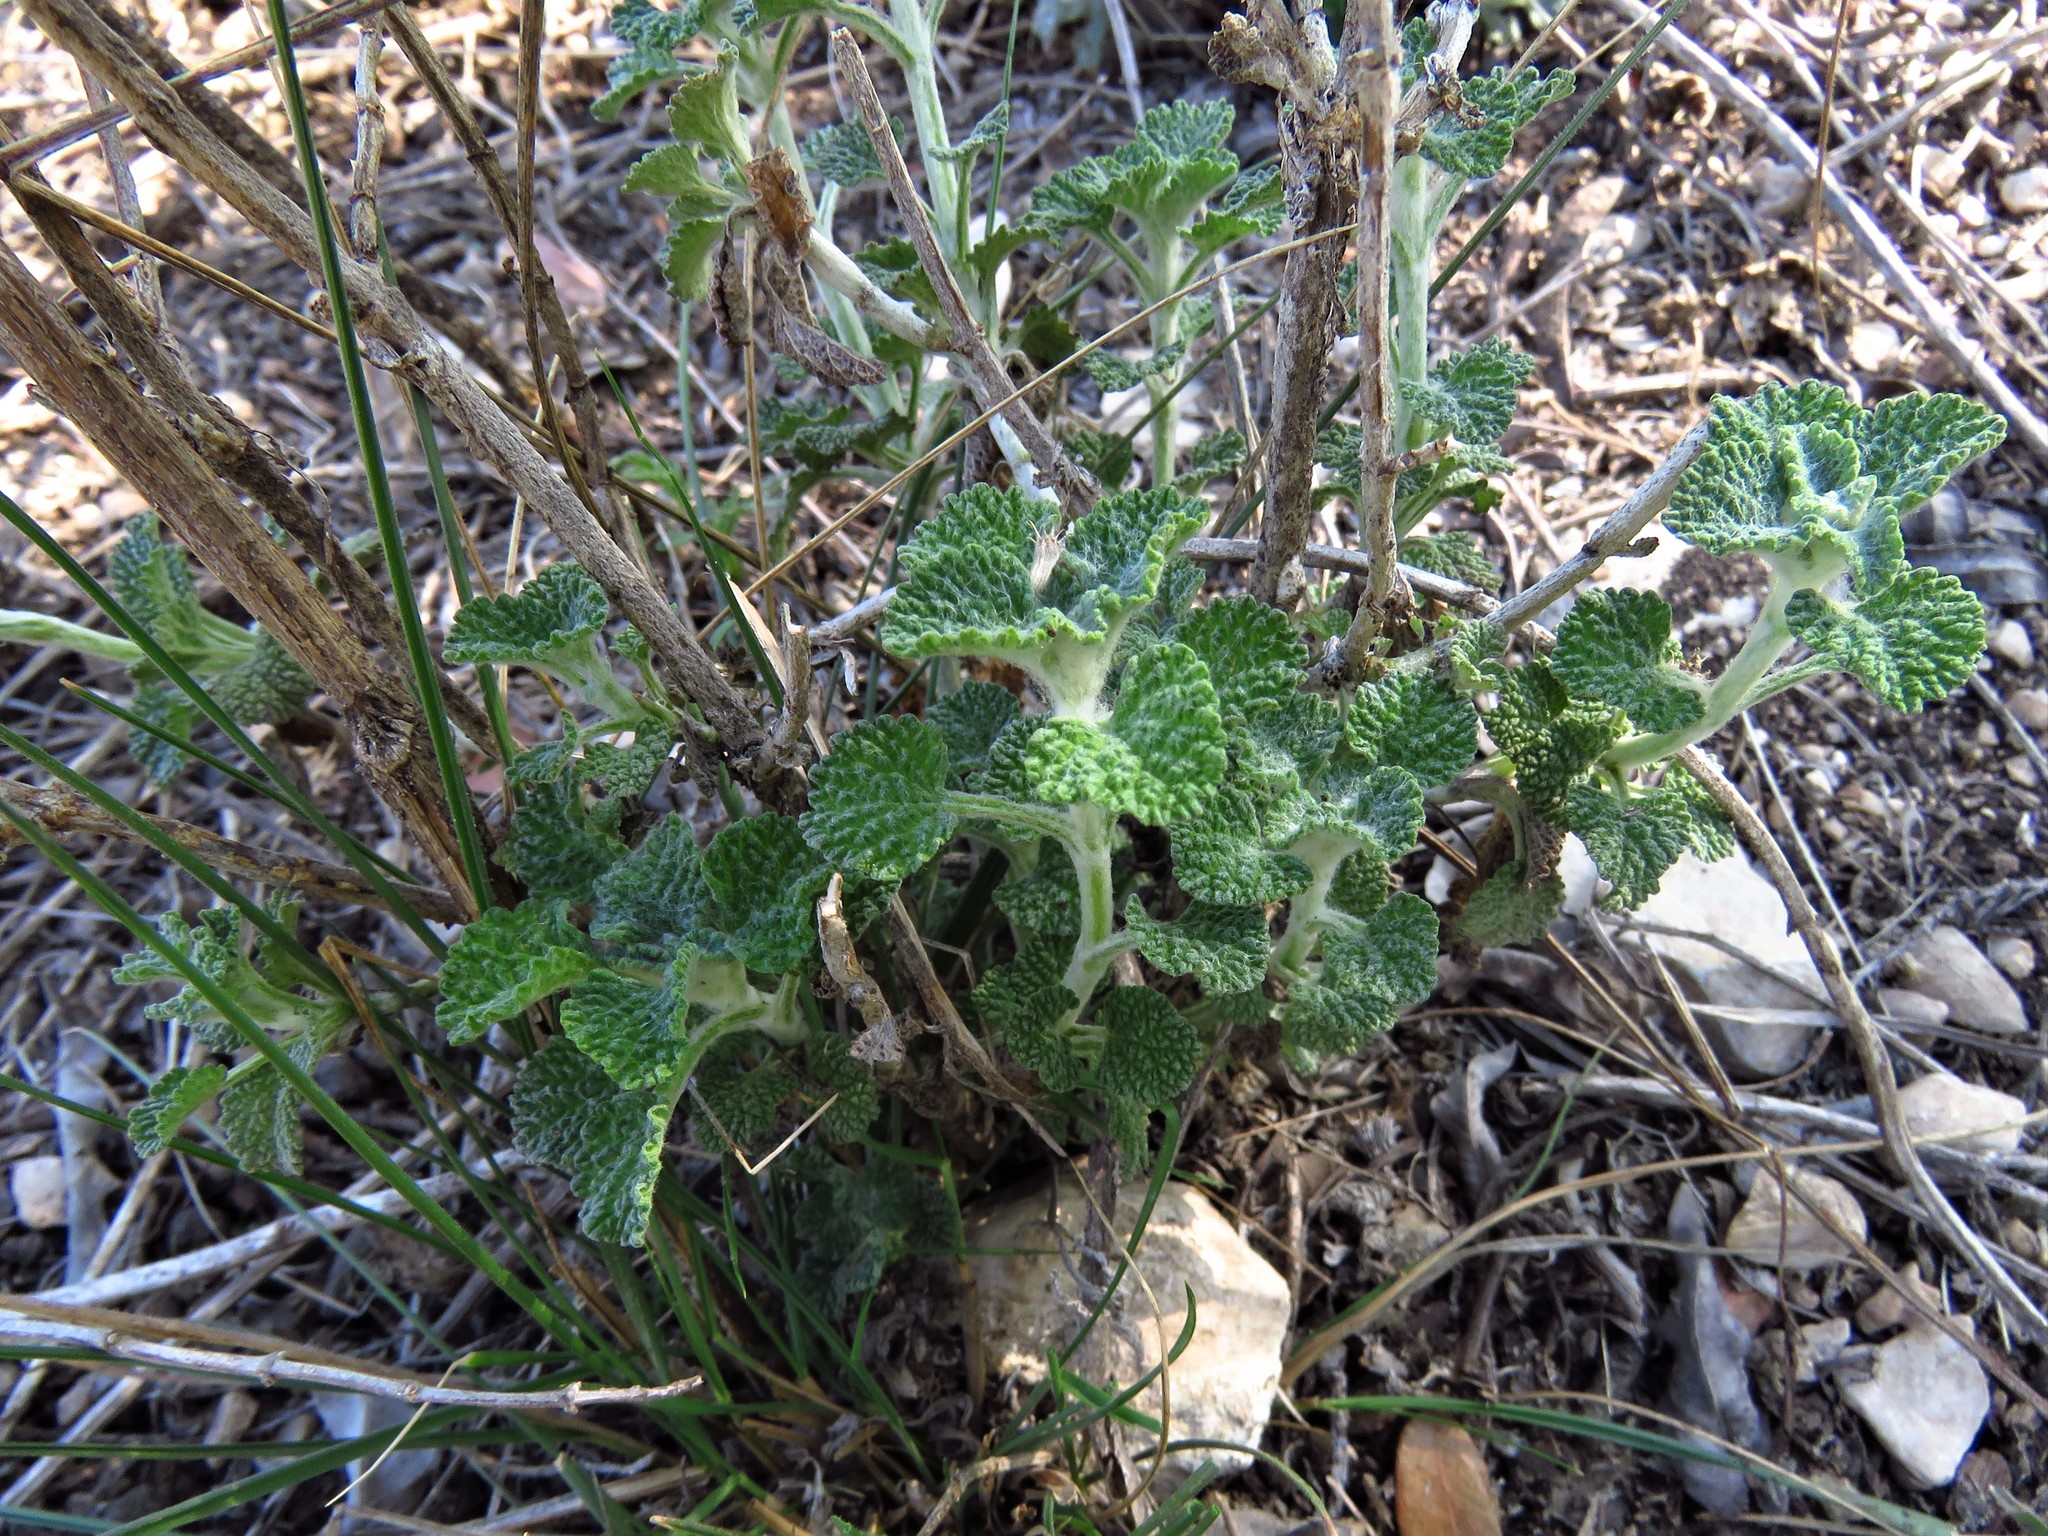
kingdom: Plantae
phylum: Tracheophyta
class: Magnoliopsida
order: Lamiales
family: Lamiaceae
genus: Marrubium
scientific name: Marrubium vulgare
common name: Horehound
